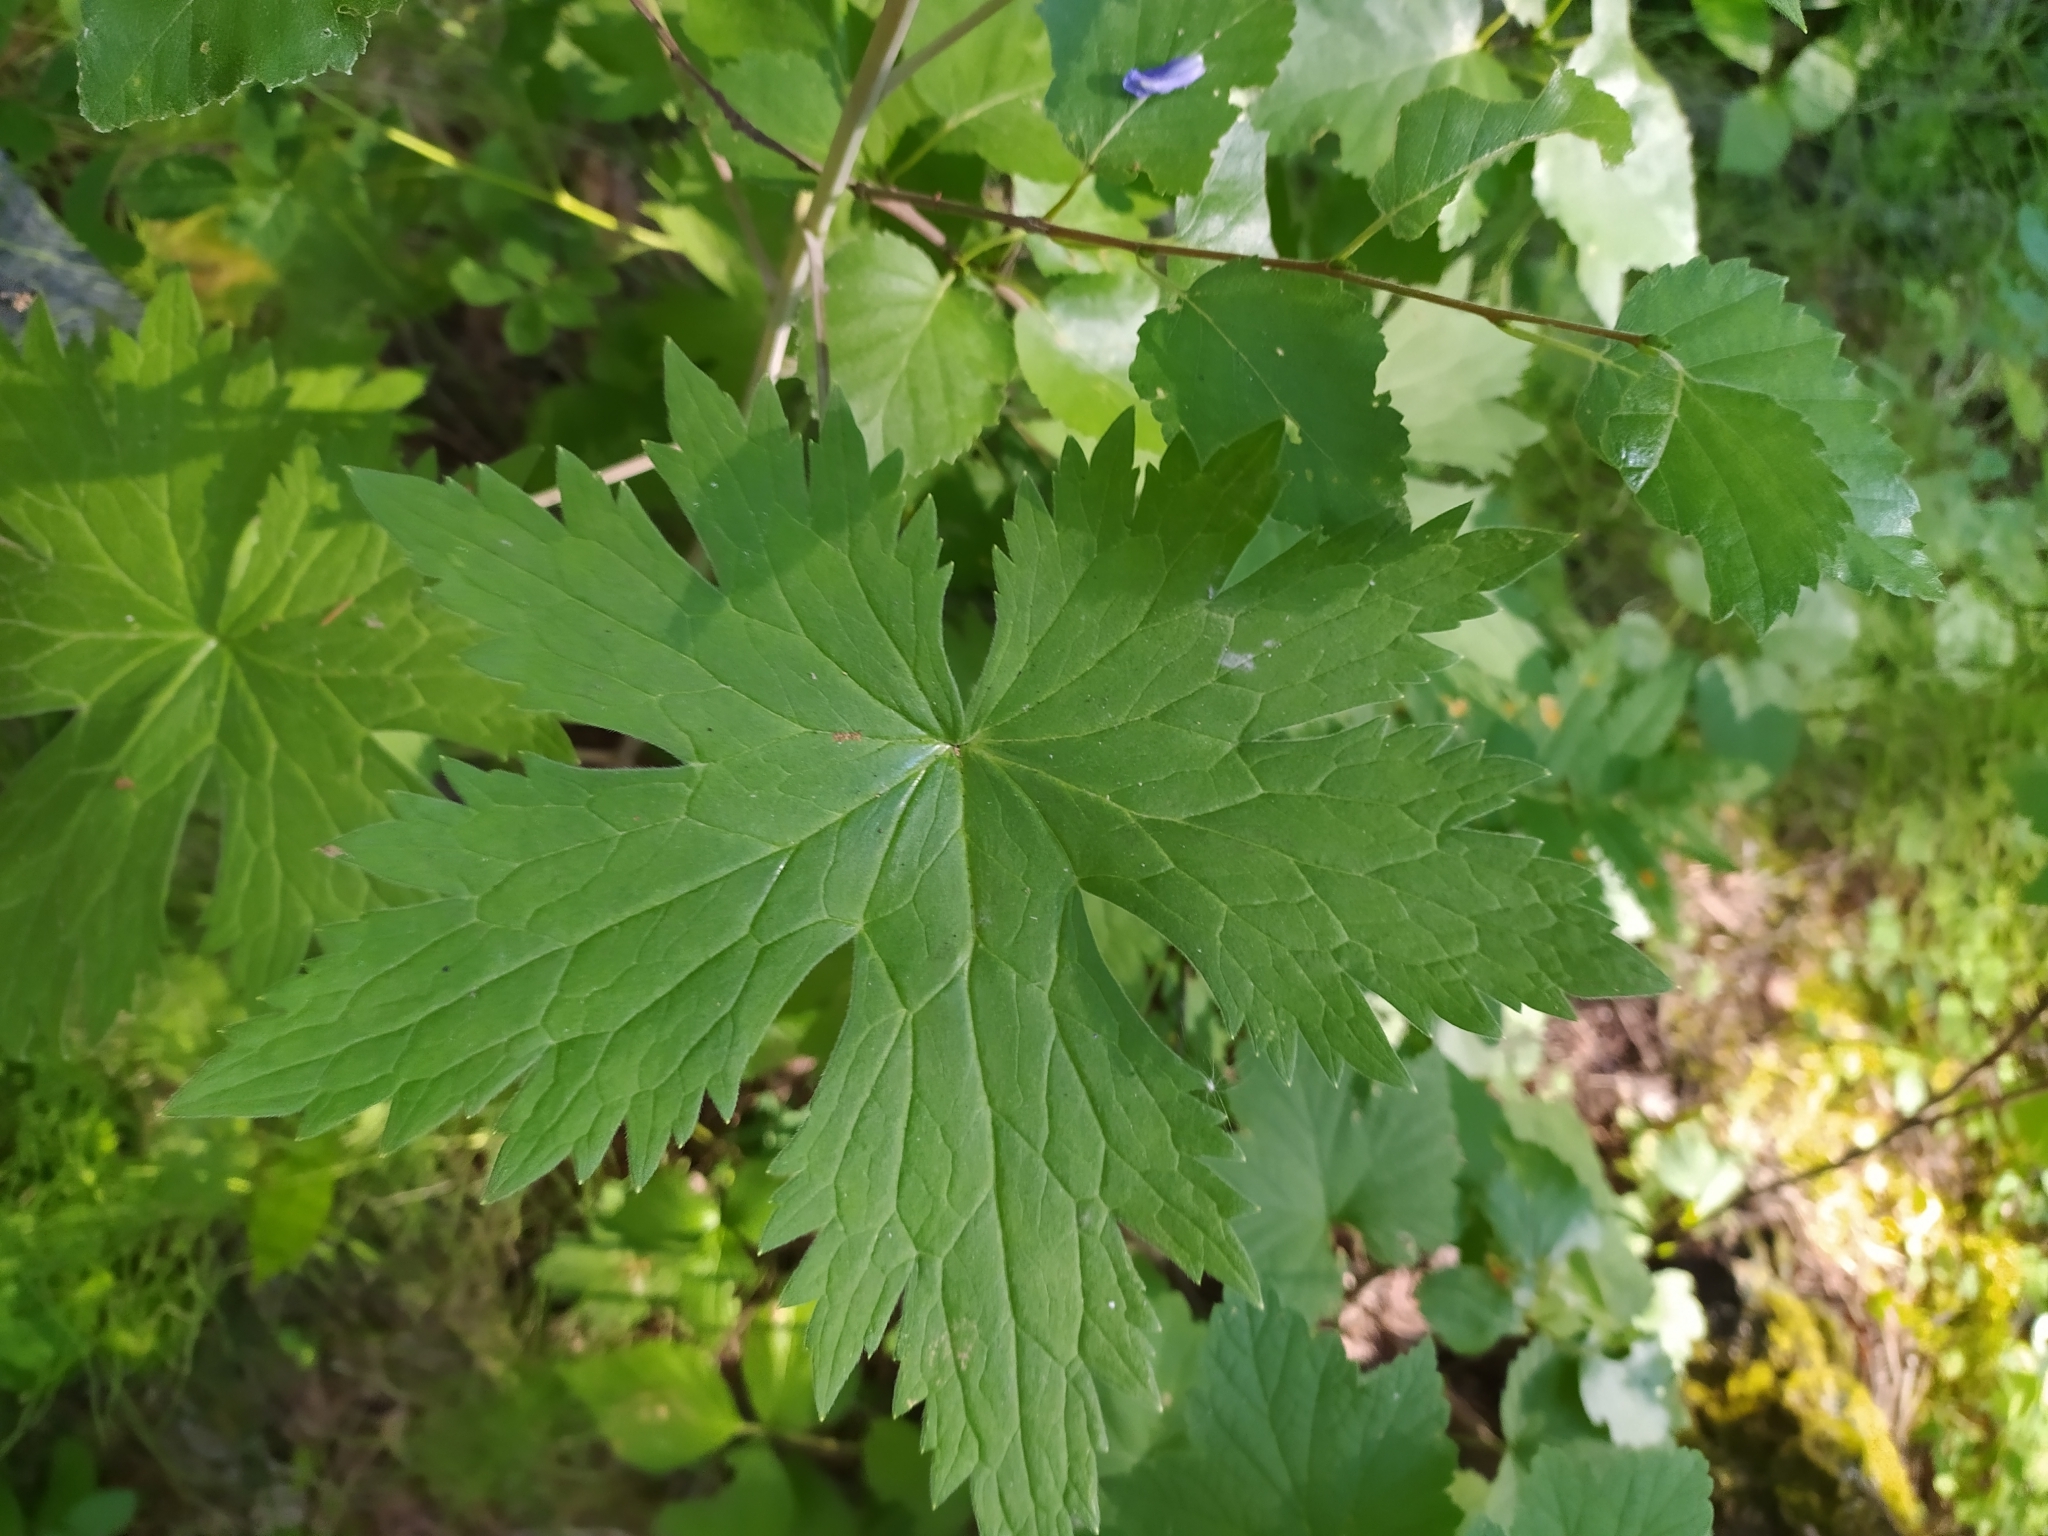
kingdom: Plantae
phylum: Tracheophyta
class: Magnoliopsida
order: Ranunculales
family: Ranunculaceae
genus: Delphinium
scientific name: Delphinium elatum
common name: Candle larkspur
